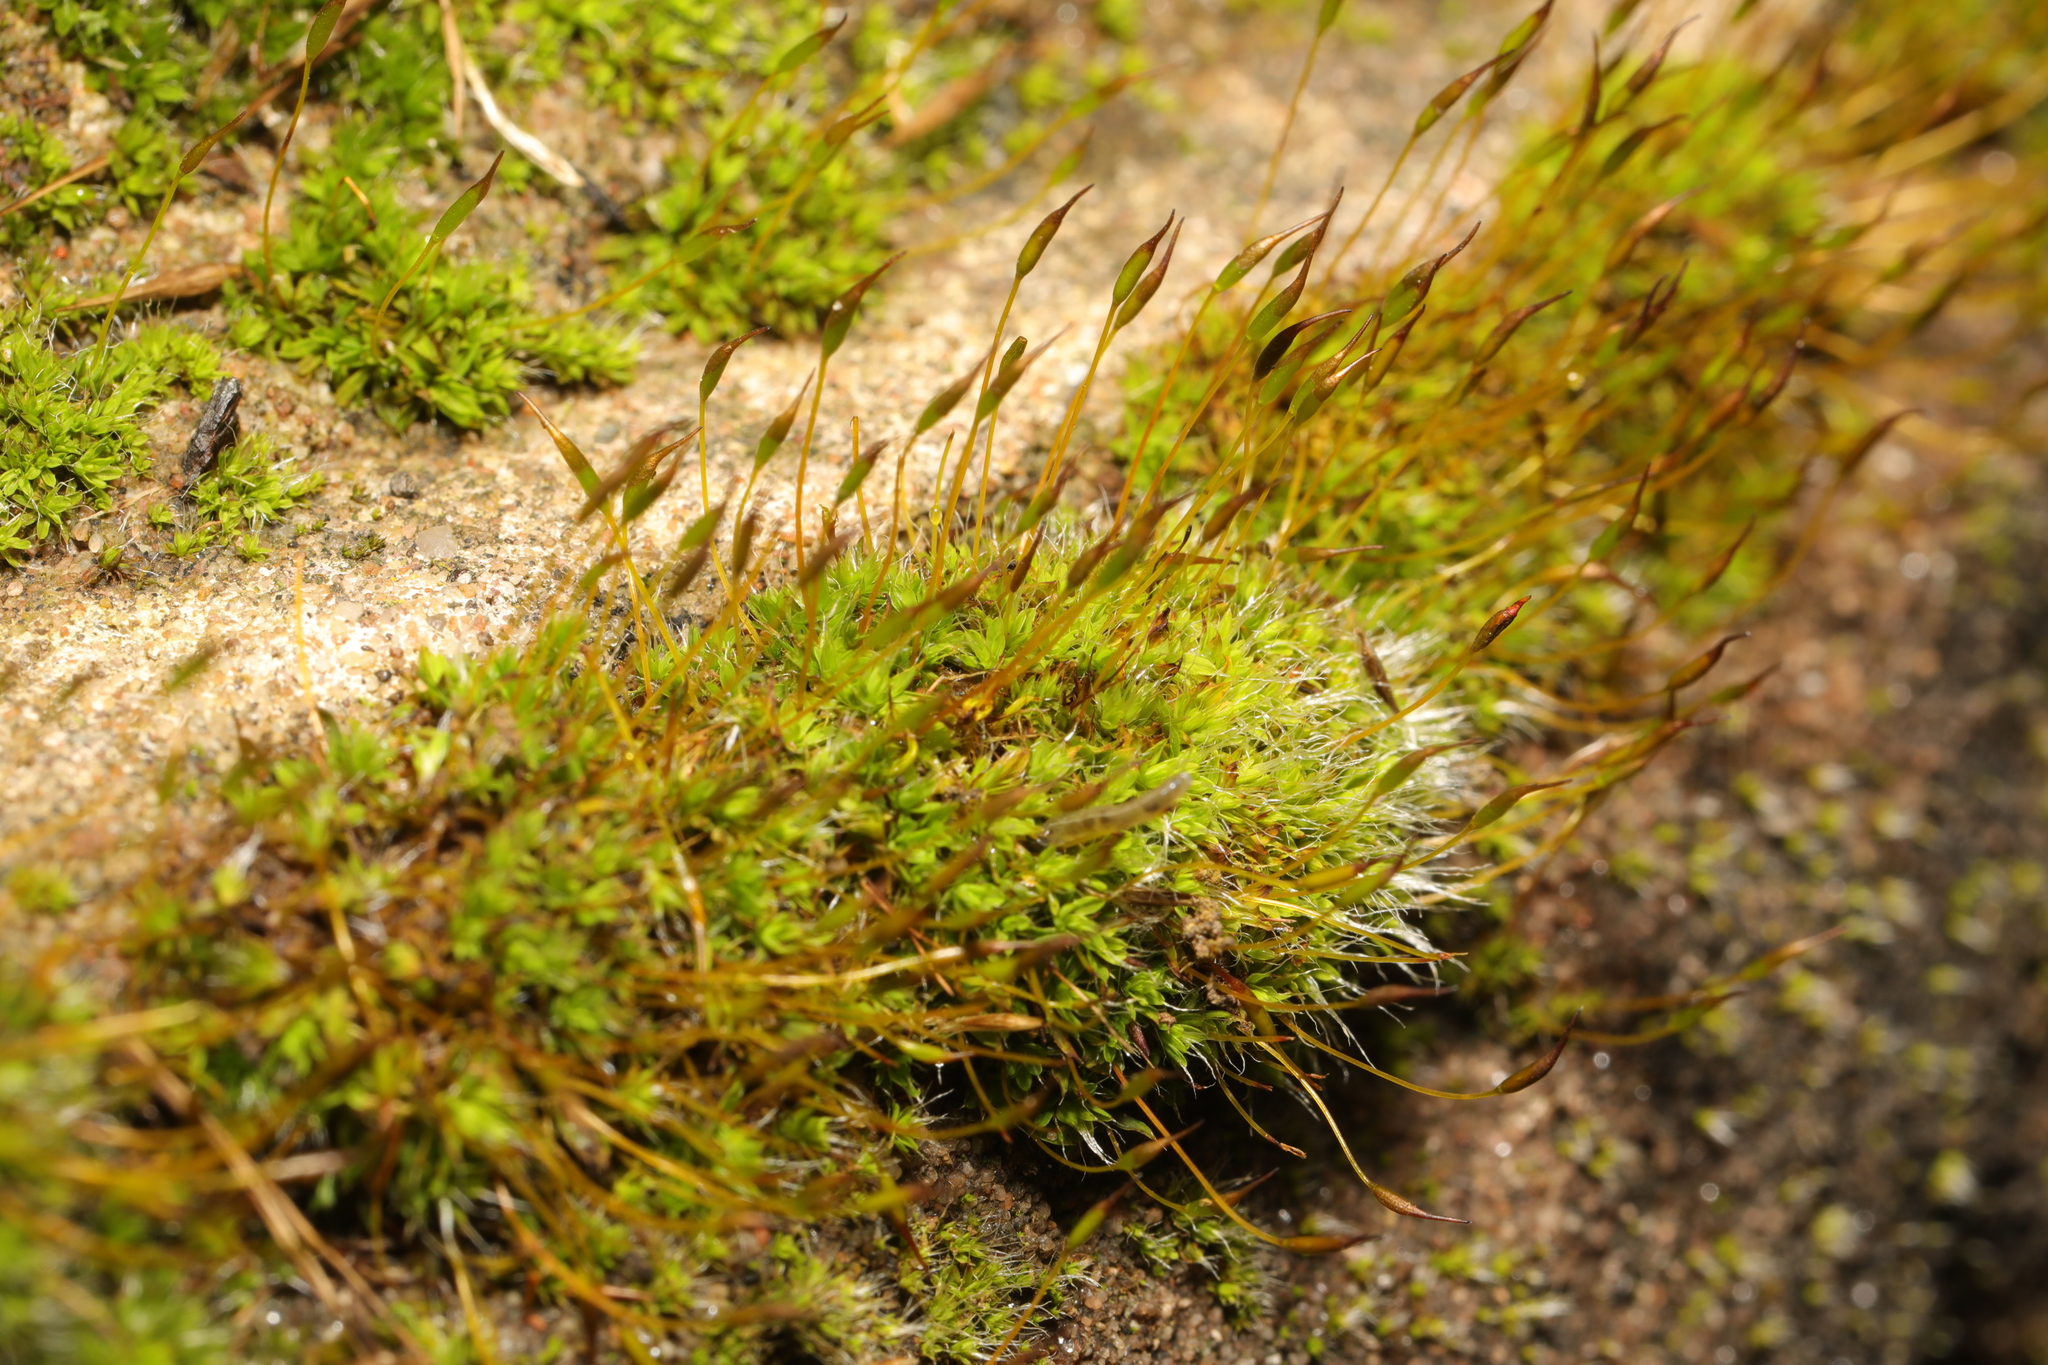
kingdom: Plantae
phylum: Bryophyta
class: Bryopsida
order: Pottiales
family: Pottiaceae
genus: Tortula
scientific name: Tortula muralis
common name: Wall screw-moss
